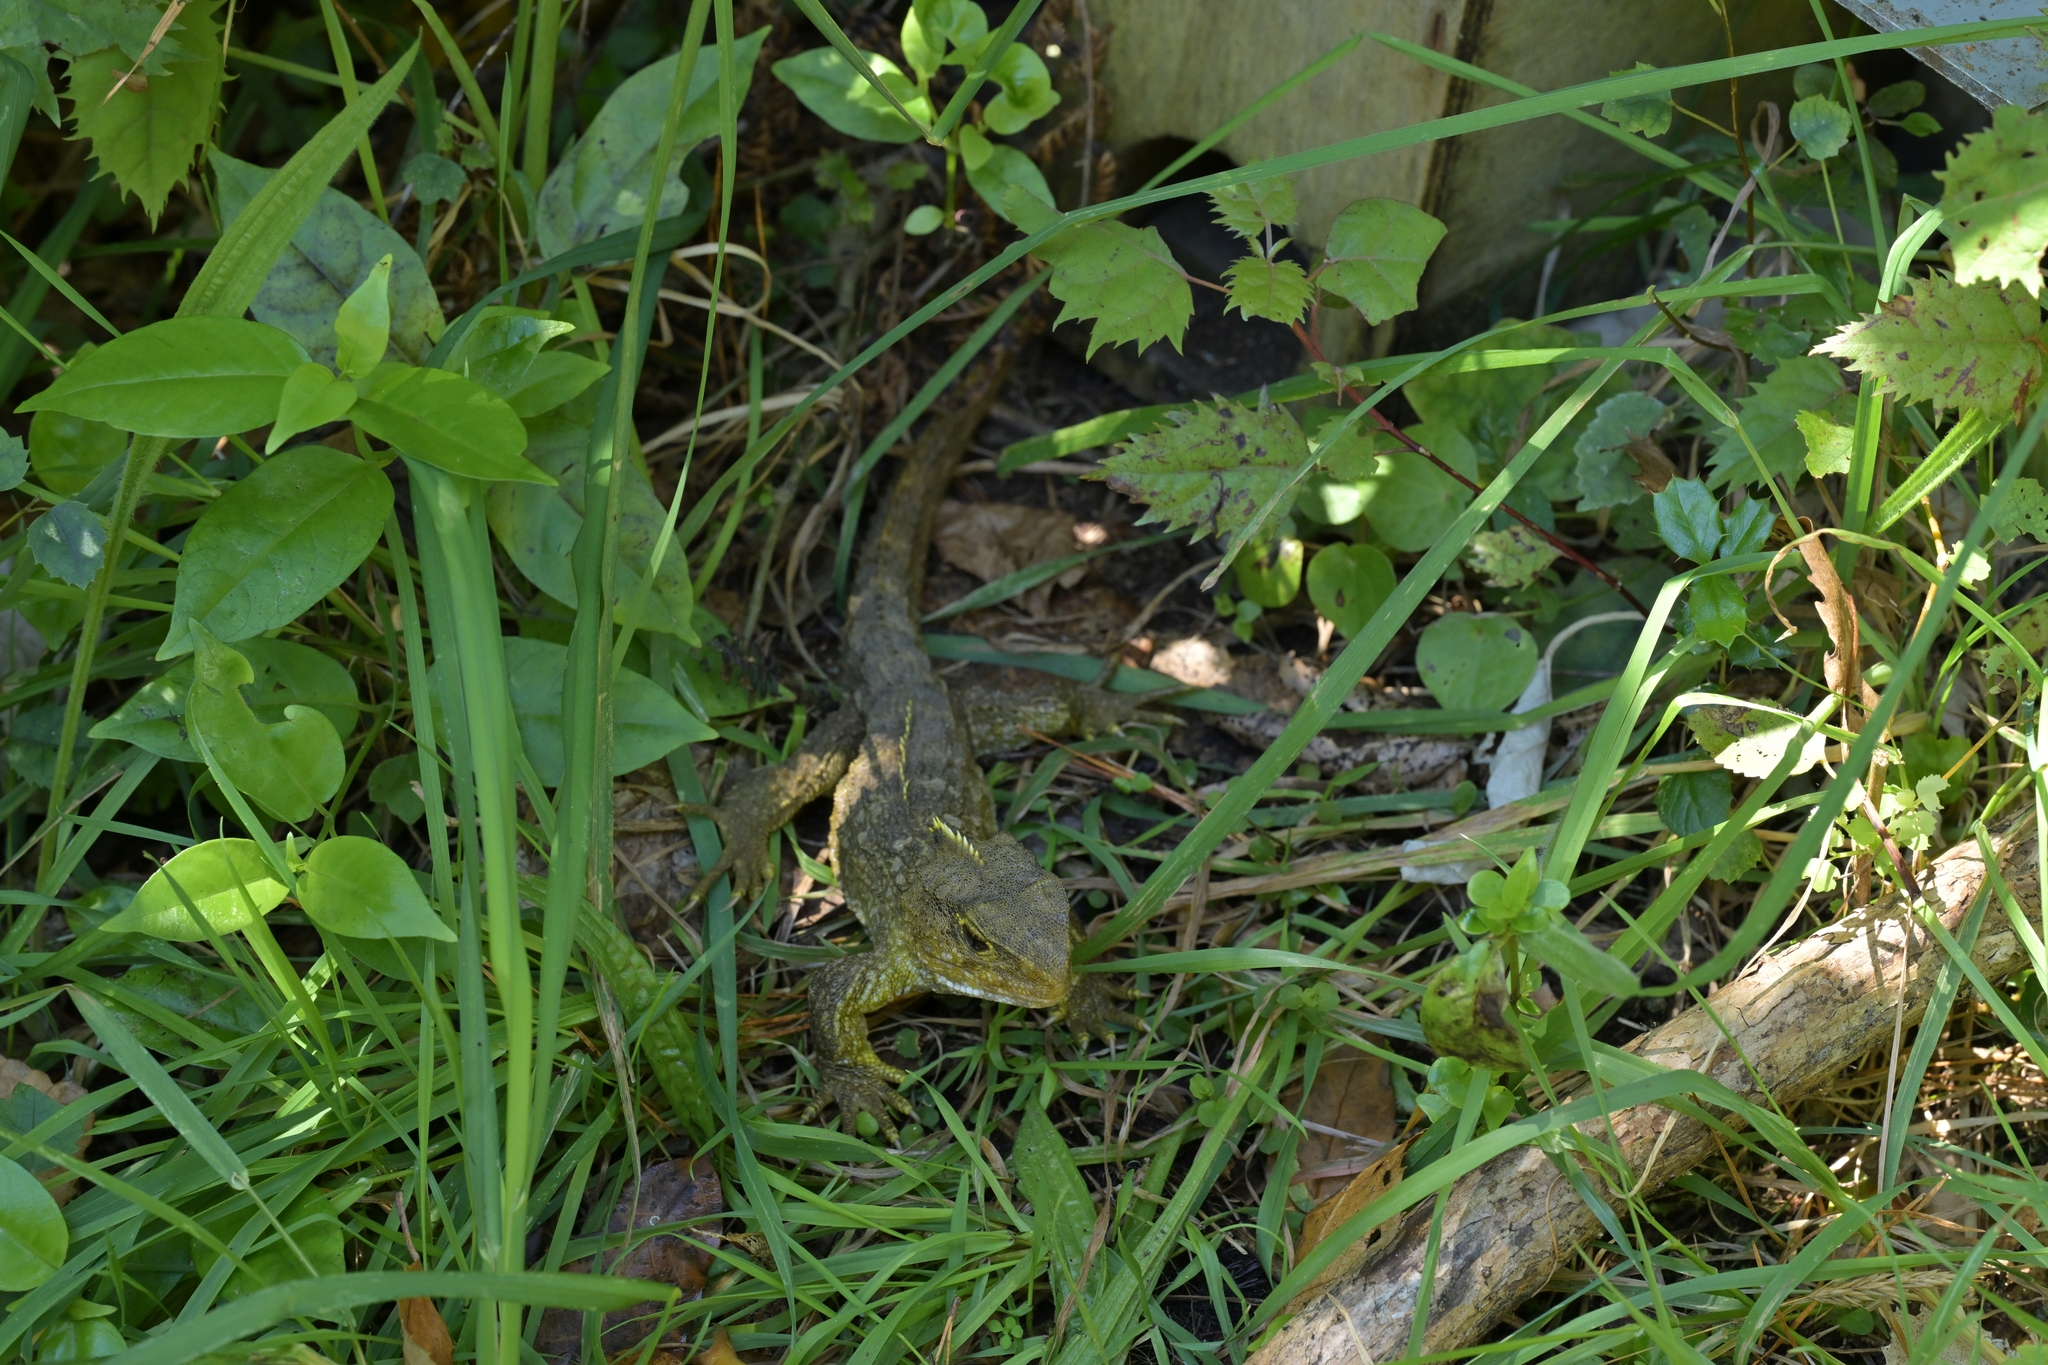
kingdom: Animalia
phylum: Chordata
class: Sphenodontia
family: Sphenodontidae
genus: Sphenodon
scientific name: Sphenodon punctatus
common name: Tuatara
